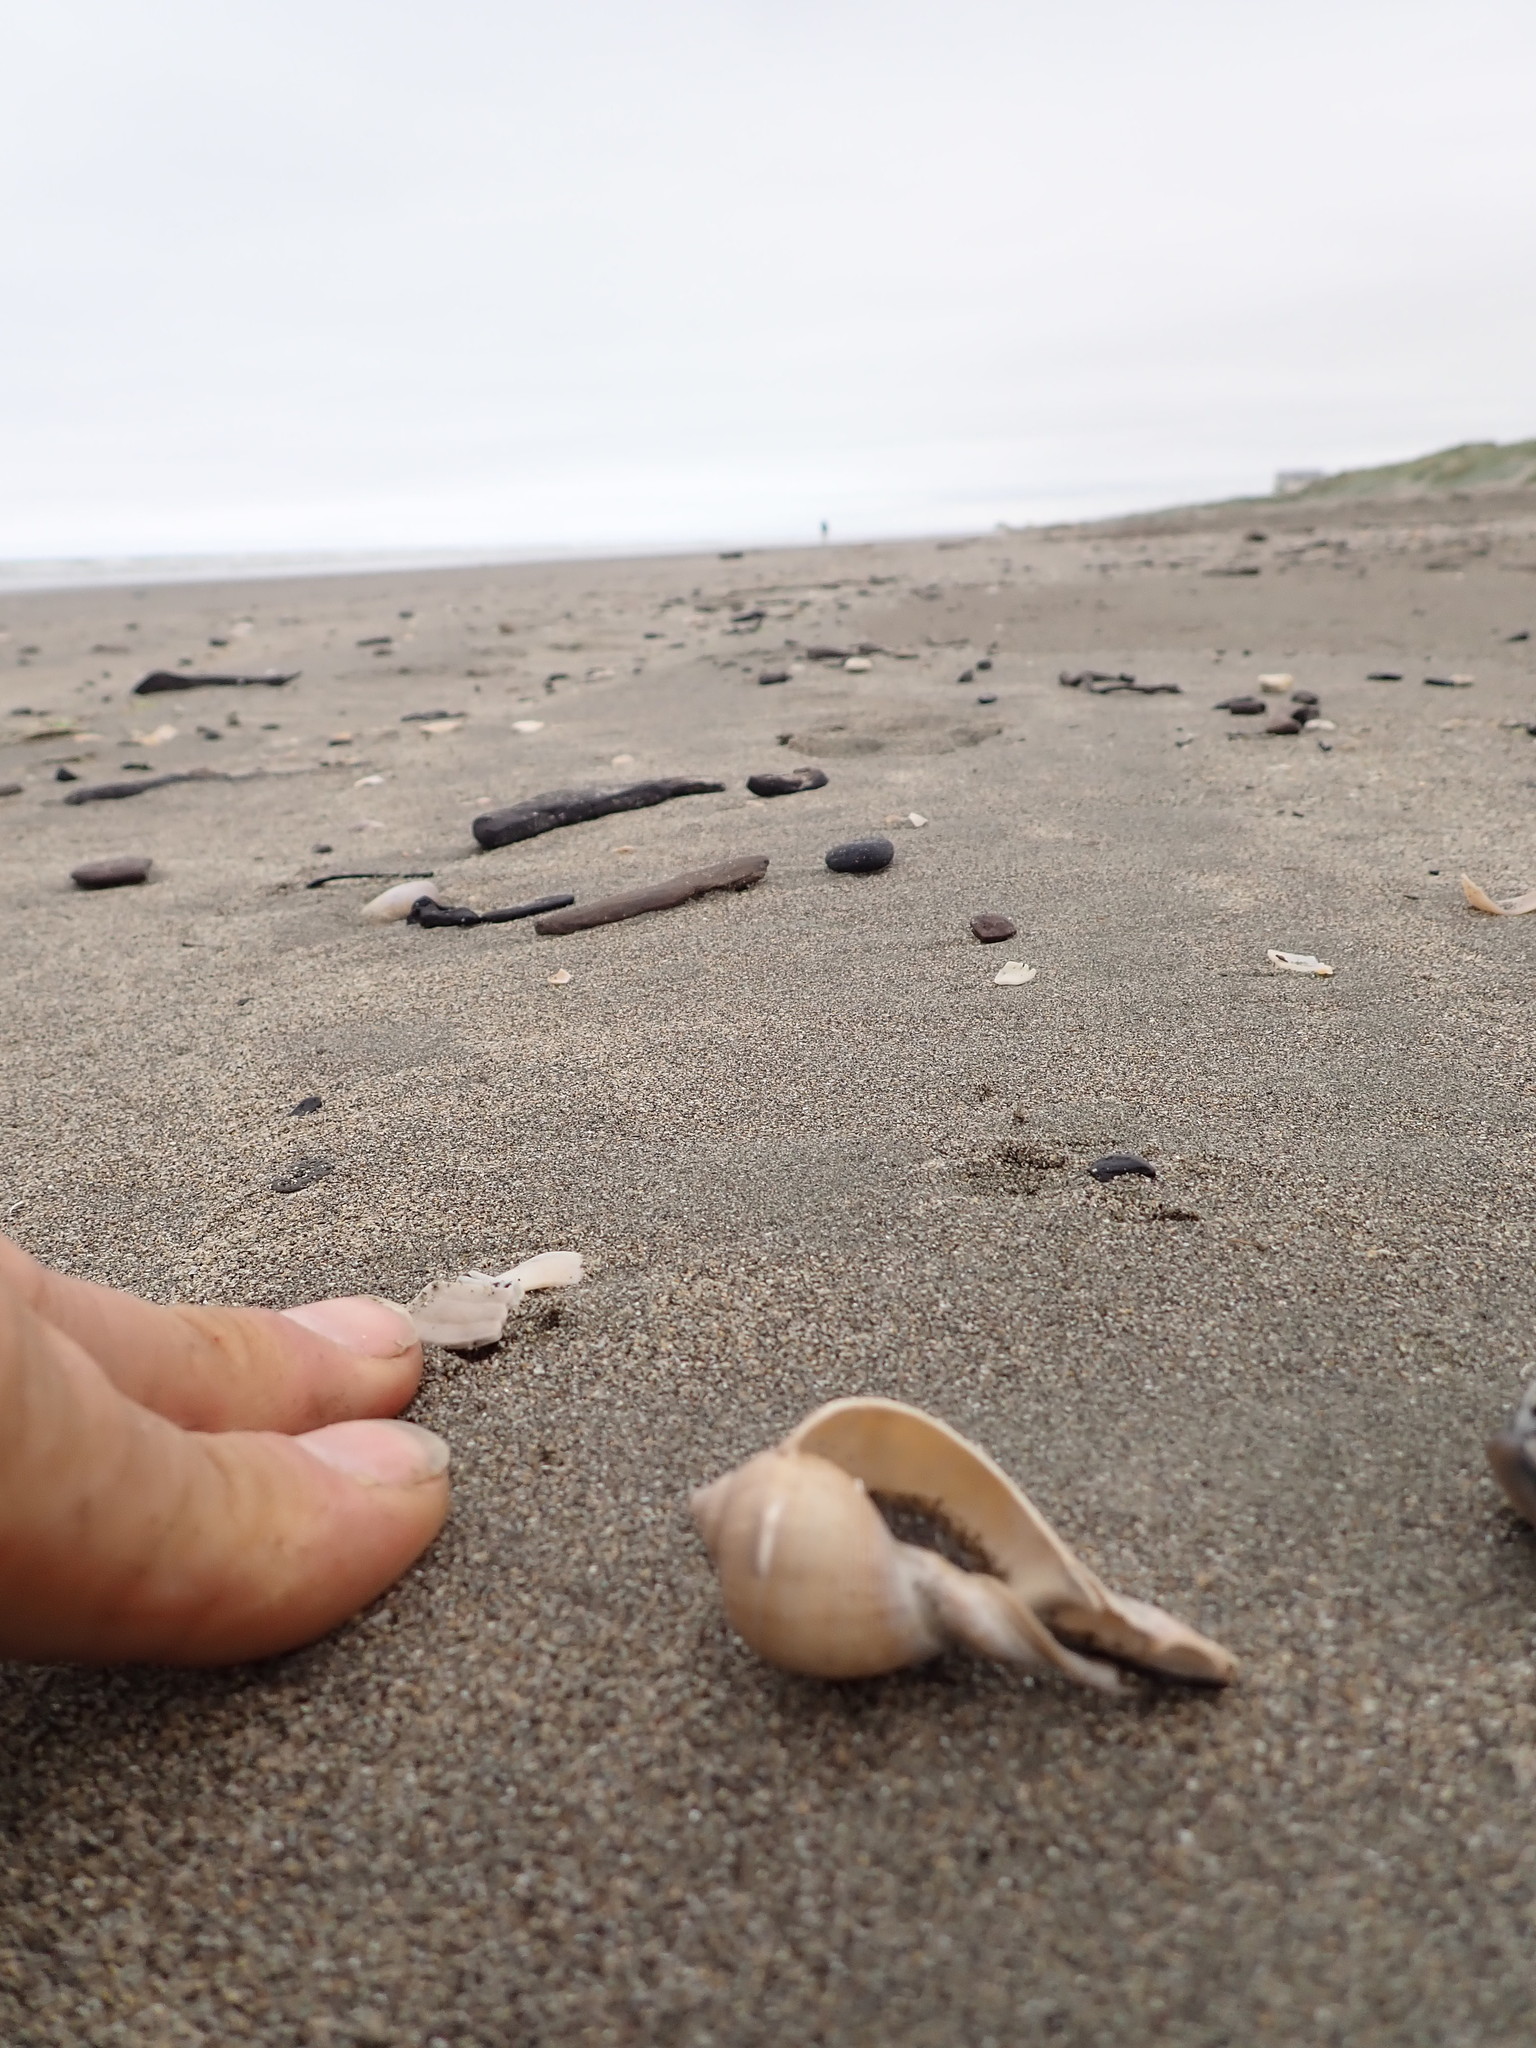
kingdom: Animalia
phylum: Mollusca
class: Gastropoda
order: Littorinimorpha
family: Cassidae
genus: Semicassis
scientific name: Semicassis pyrum
